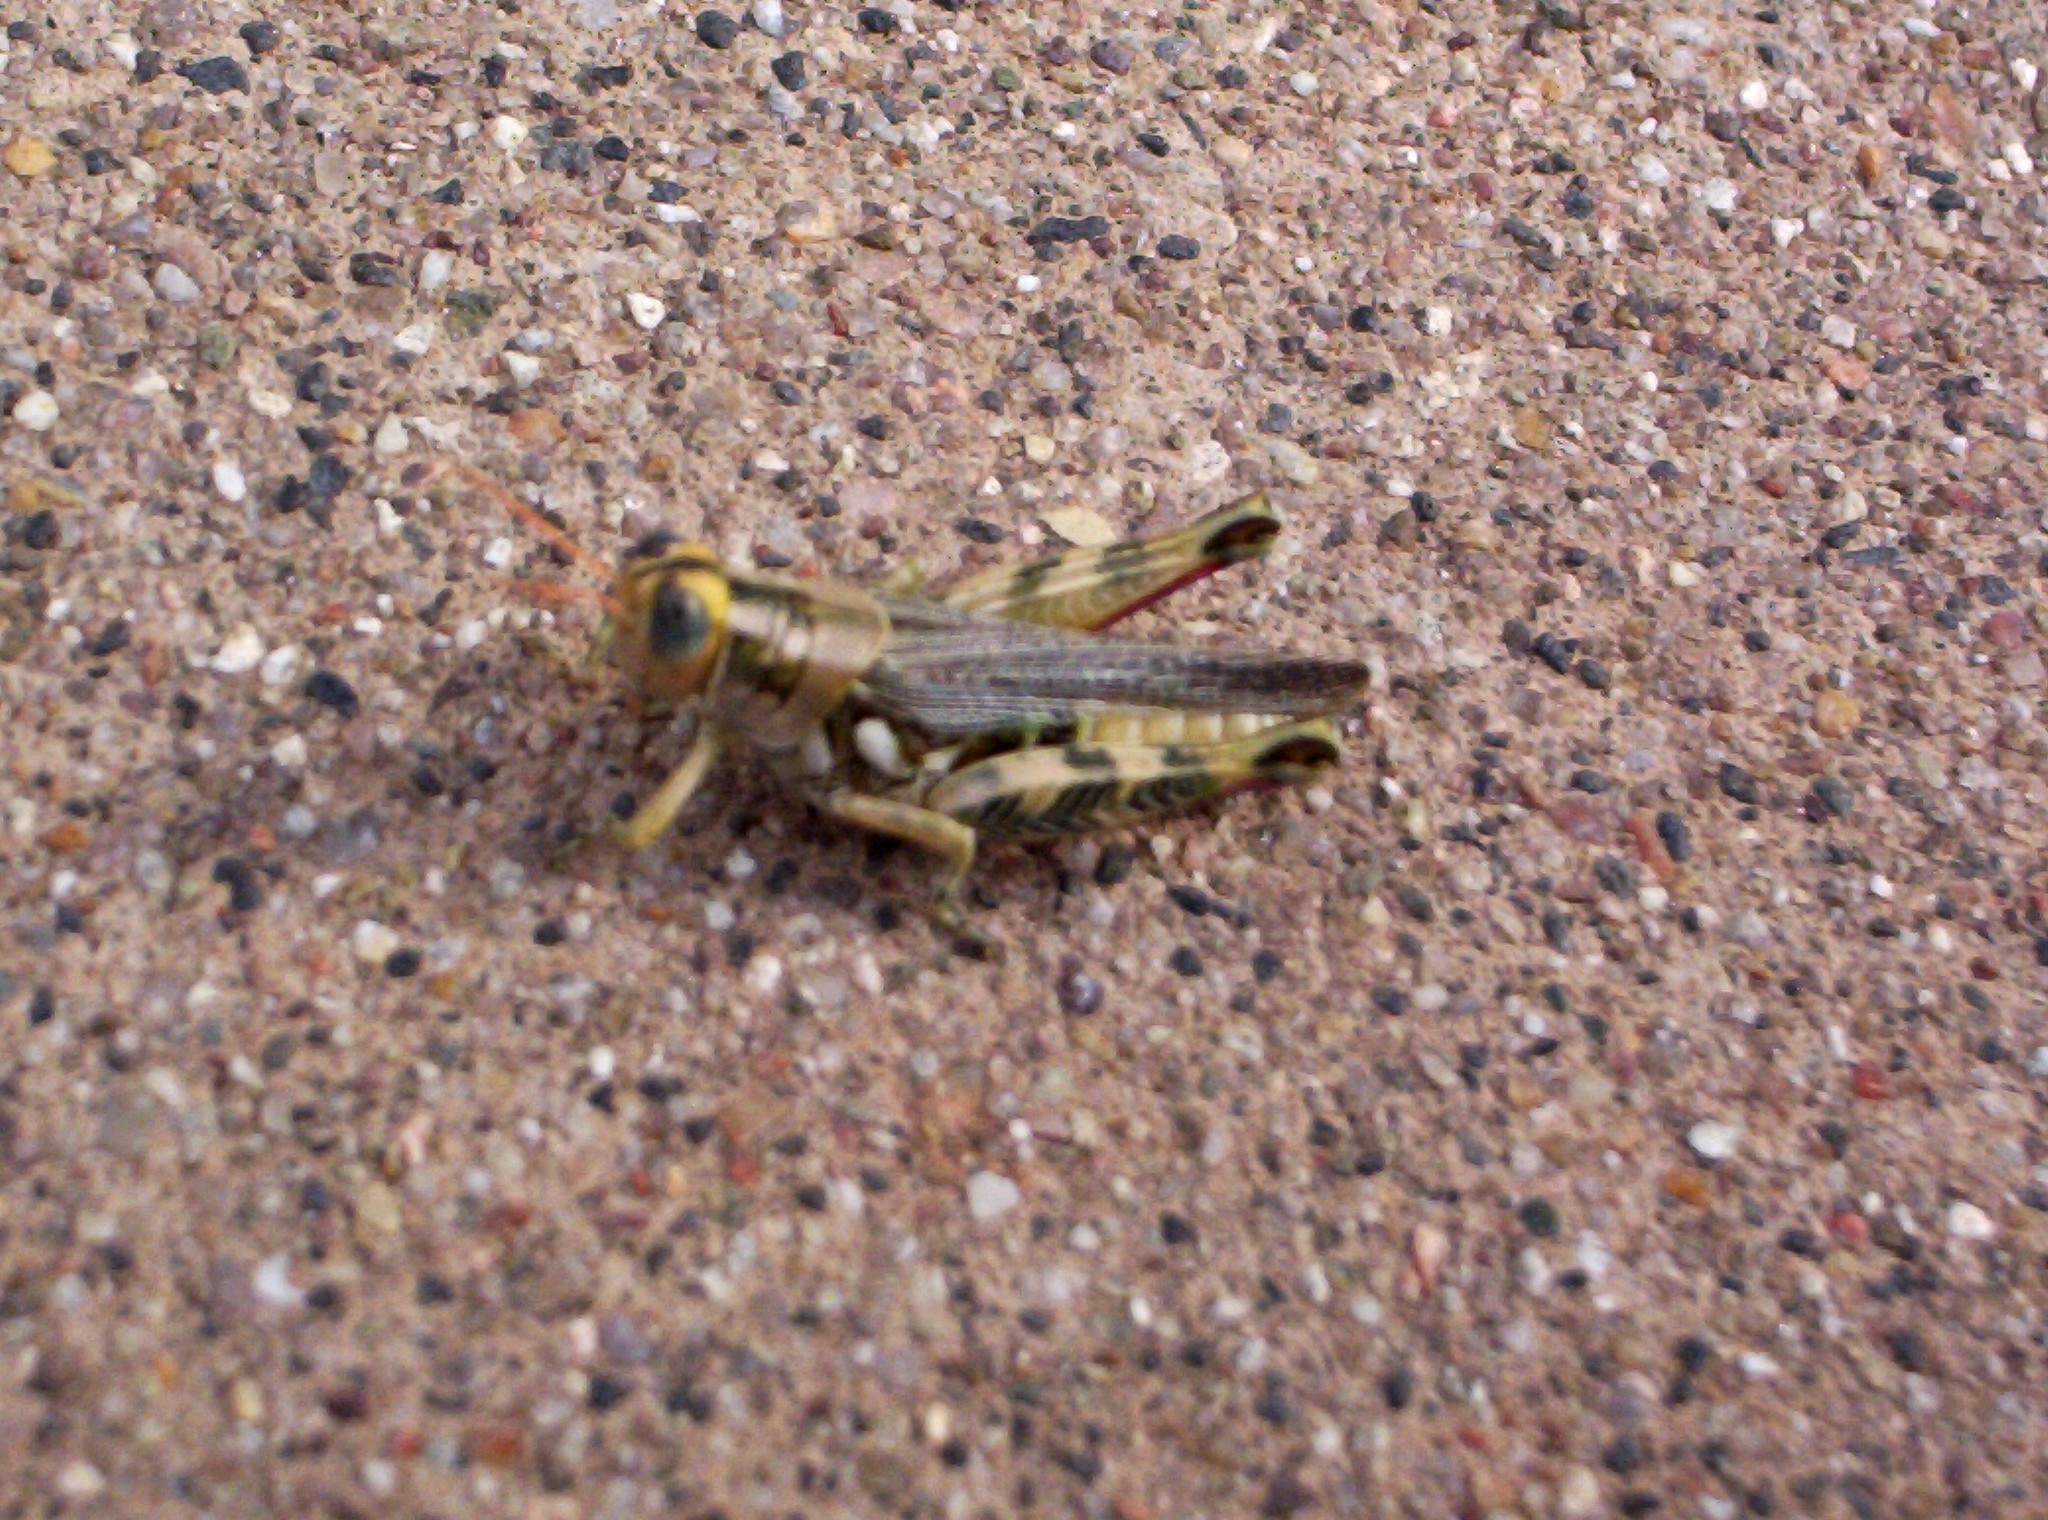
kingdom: Animalia
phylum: Arthropoda
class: Insecta
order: Orthoptera
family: Acrididae
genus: Aeoloplides
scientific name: Aeoloplides tenuipennis
